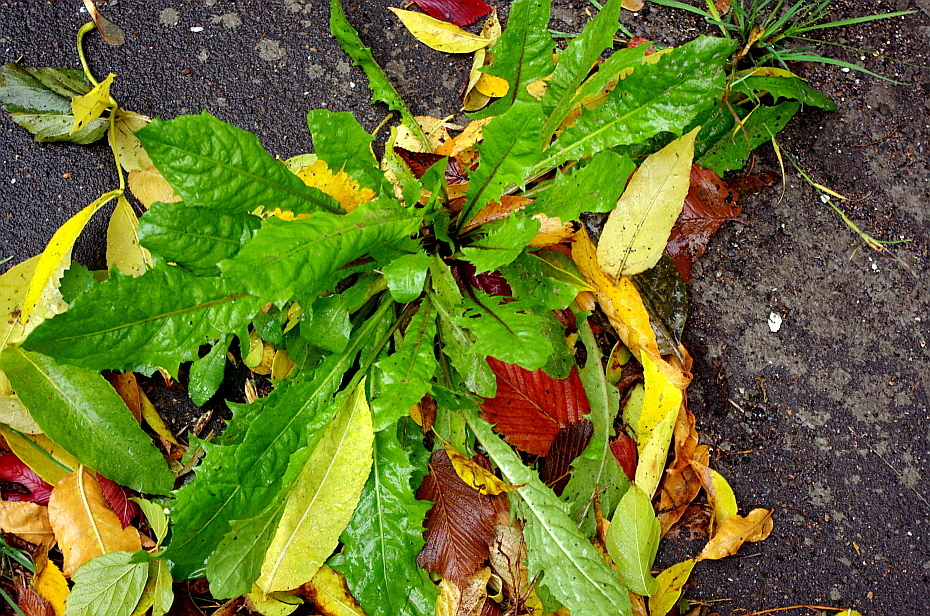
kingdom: Plantae
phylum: Tracheophyta
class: Magnoliopsida
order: Asterales
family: Asteraceae
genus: Taraxacum
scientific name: Taraxacum officinale
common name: Common dandelion
